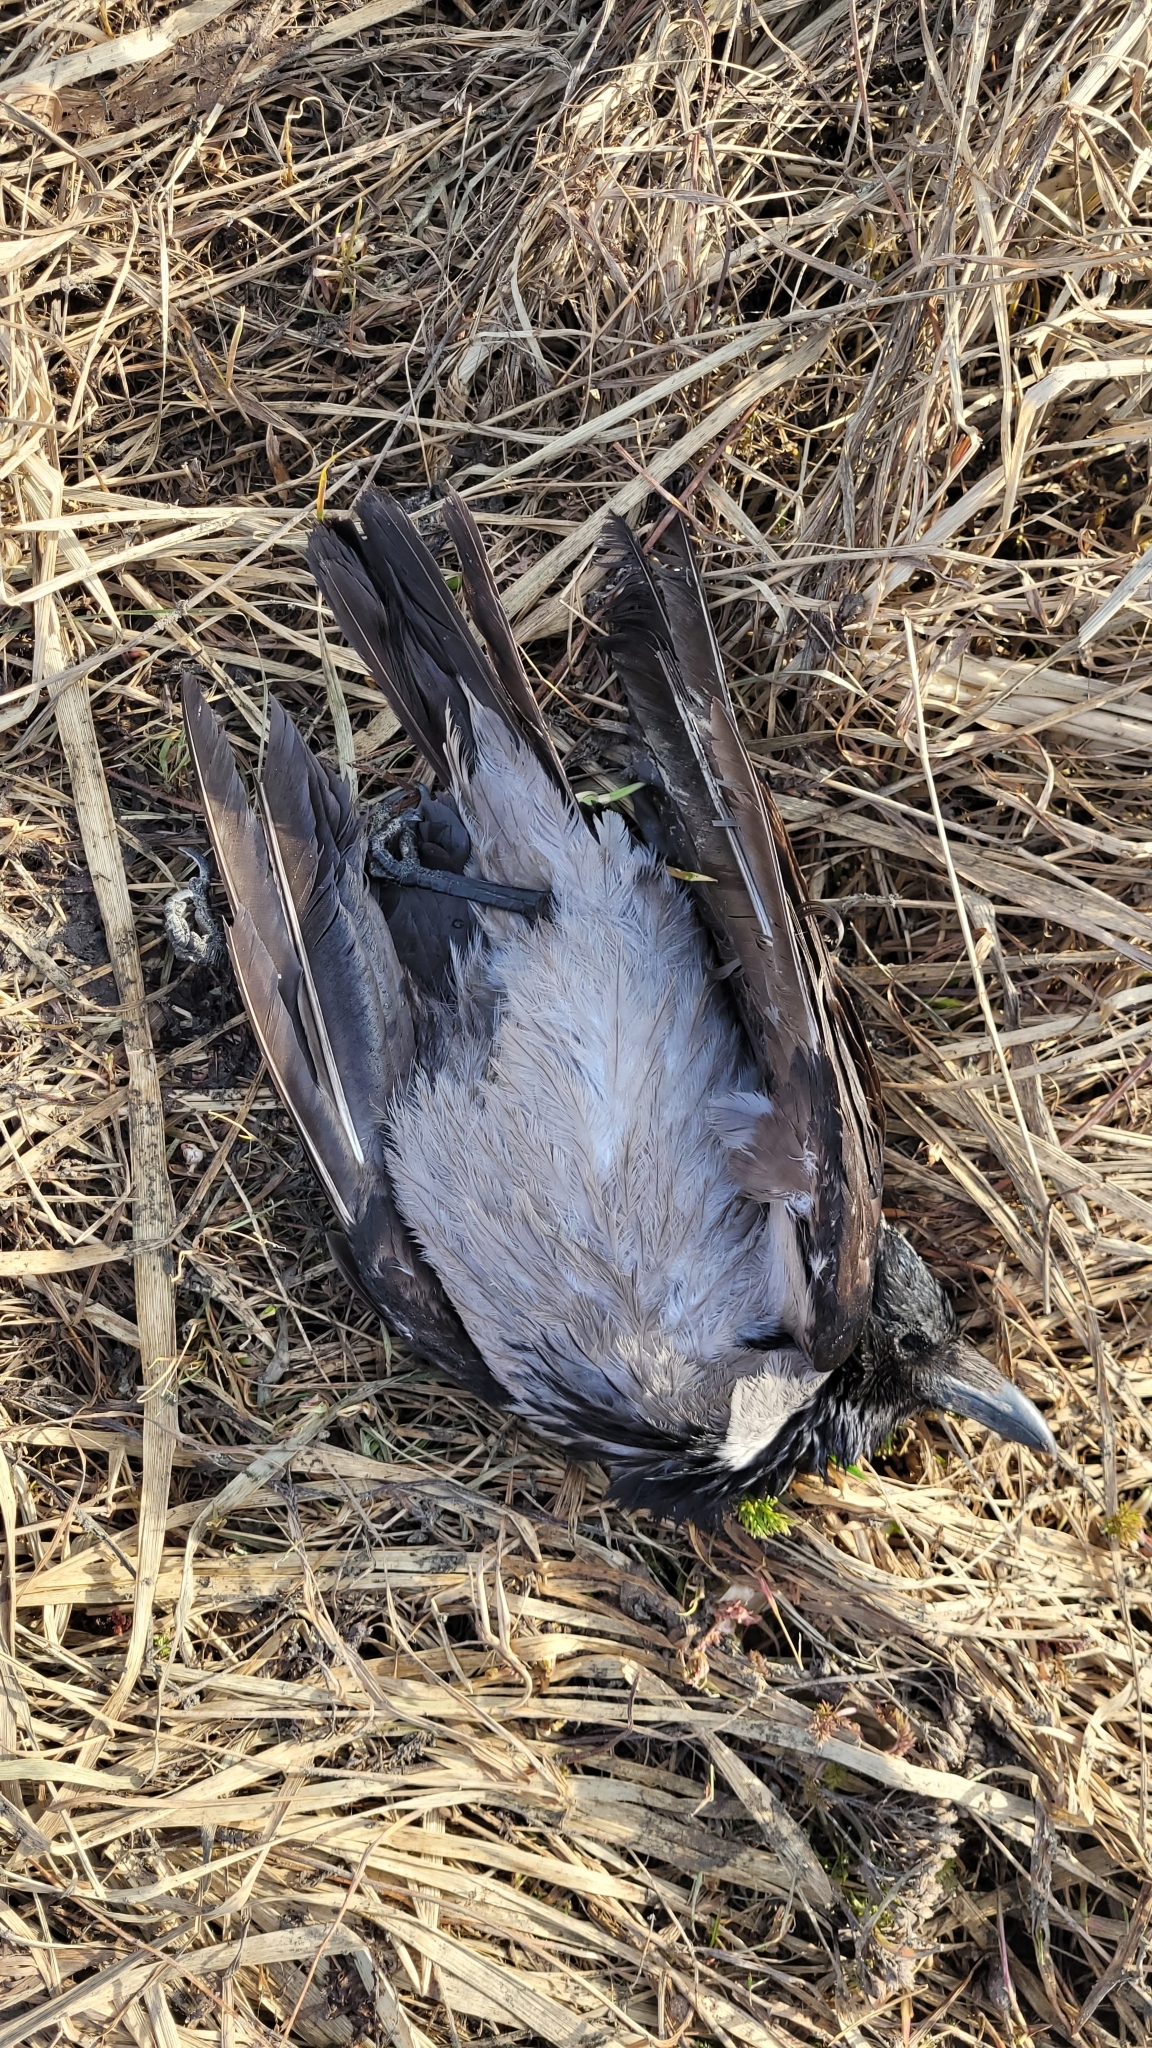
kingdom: Animalia
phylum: Chordata
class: Aves
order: Passeriformes
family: Corvidae
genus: Corvus
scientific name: Corvus cornix
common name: Hooded crow
